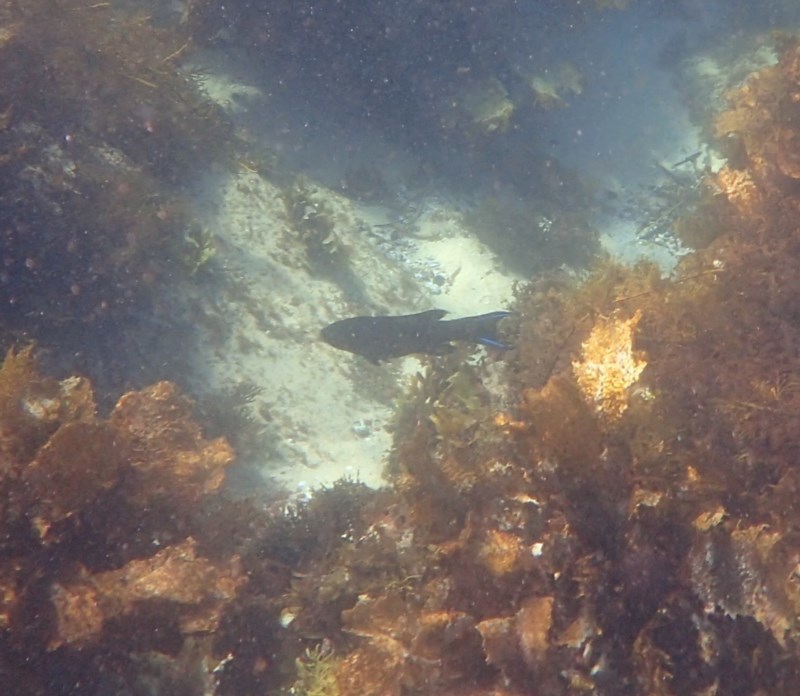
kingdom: Animalia
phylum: Chordata
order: Perciformes
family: Odacidae
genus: Olisthops
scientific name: Olisthops cyanomelas
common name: Herring cale
